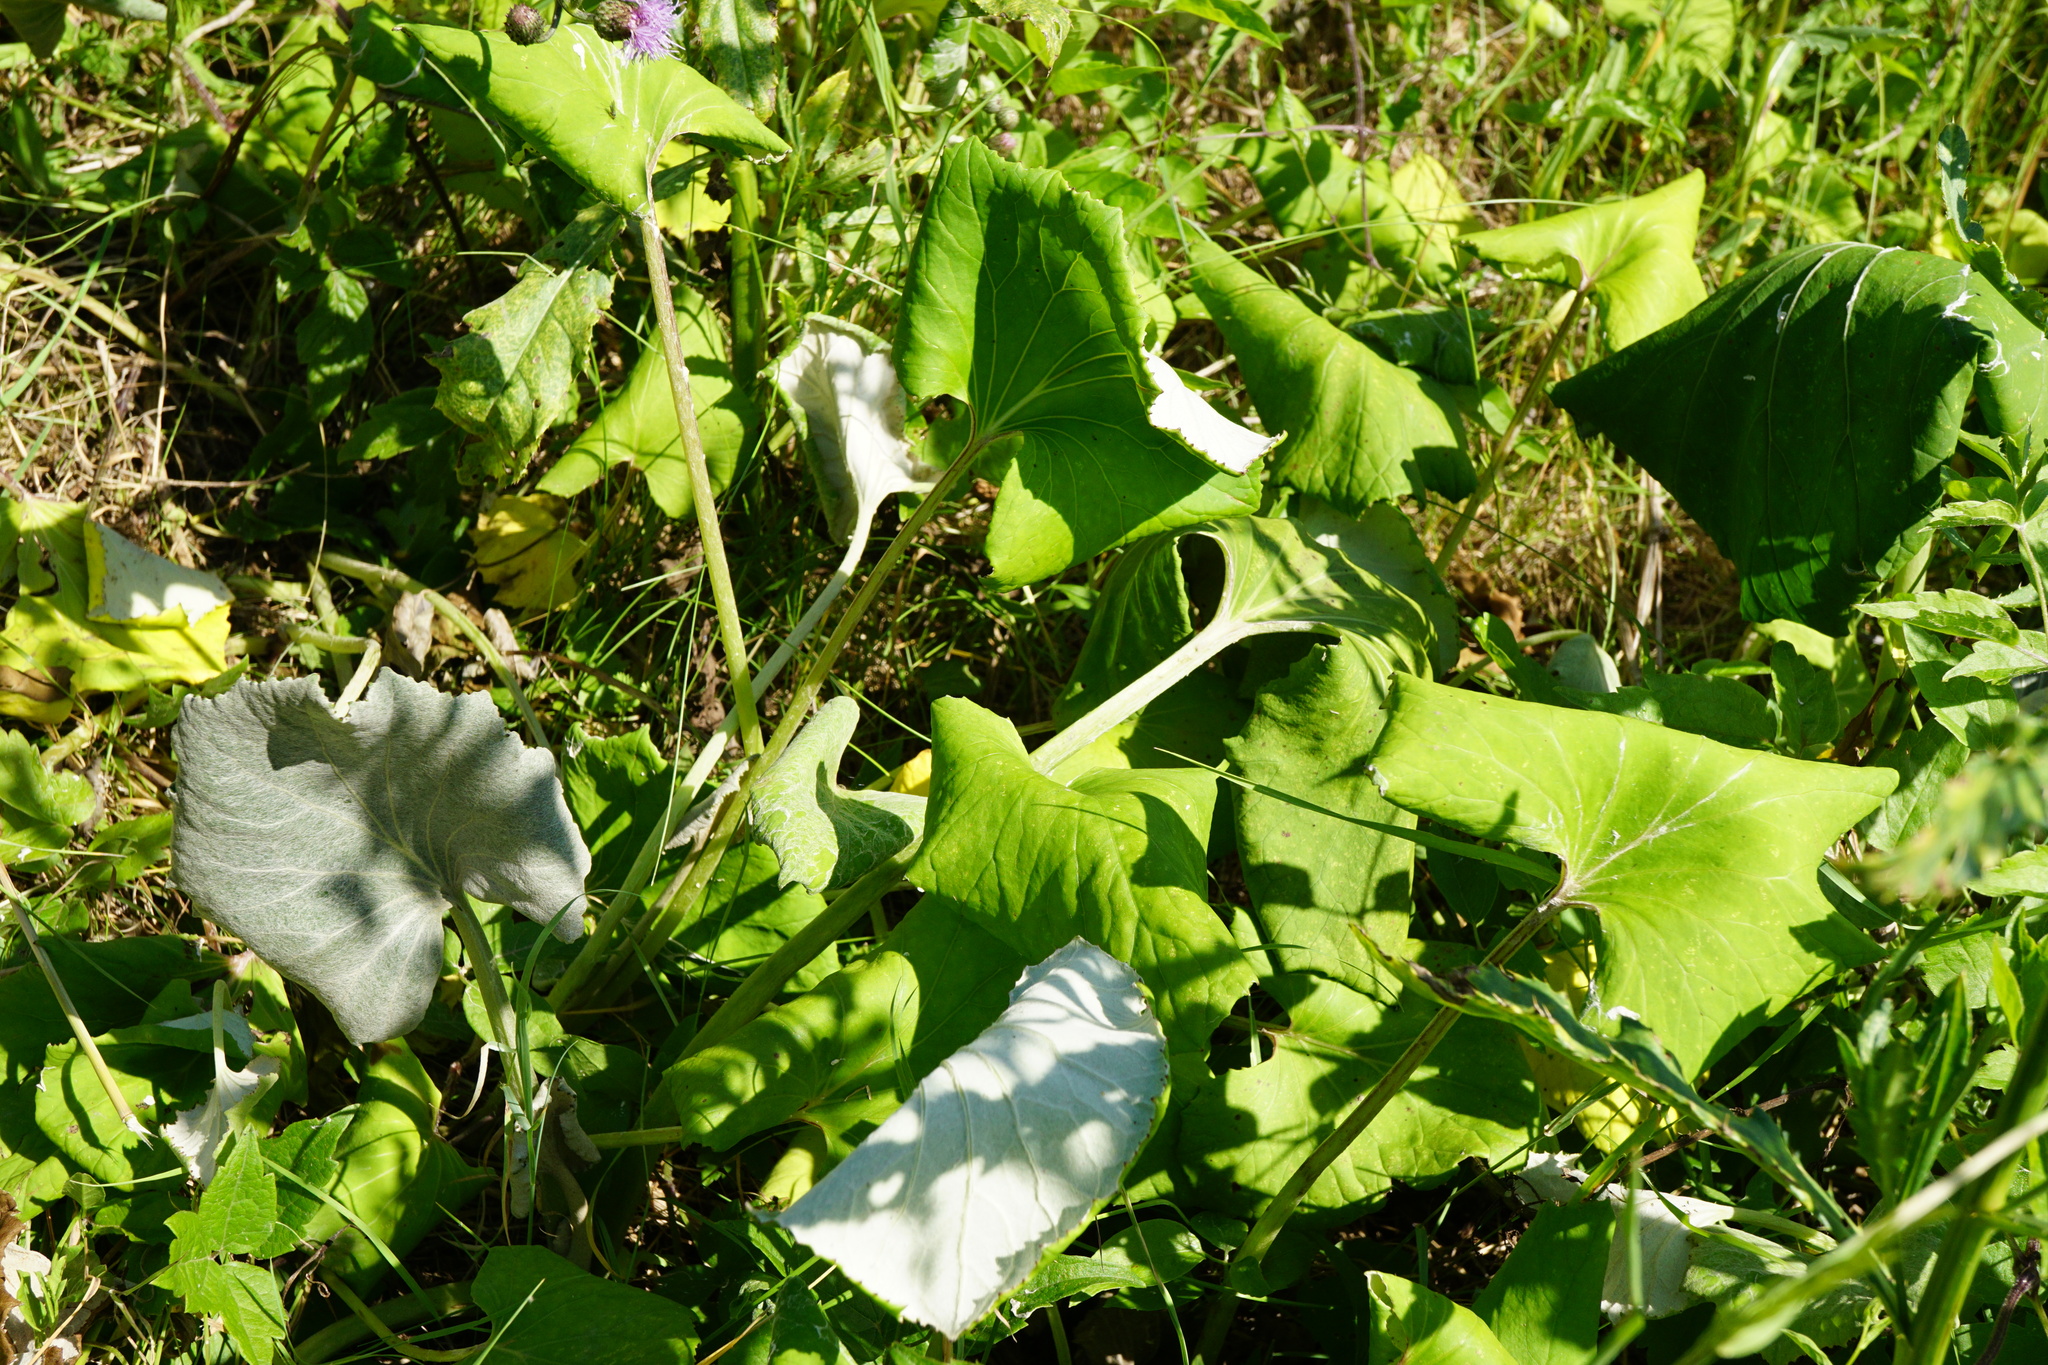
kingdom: Plantae
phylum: Tracheophyta
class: Magnoliopsida
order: Asterales
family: Asteraceae
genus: Tussilago
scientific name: Tussilago farfara
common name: Coltsfoot
